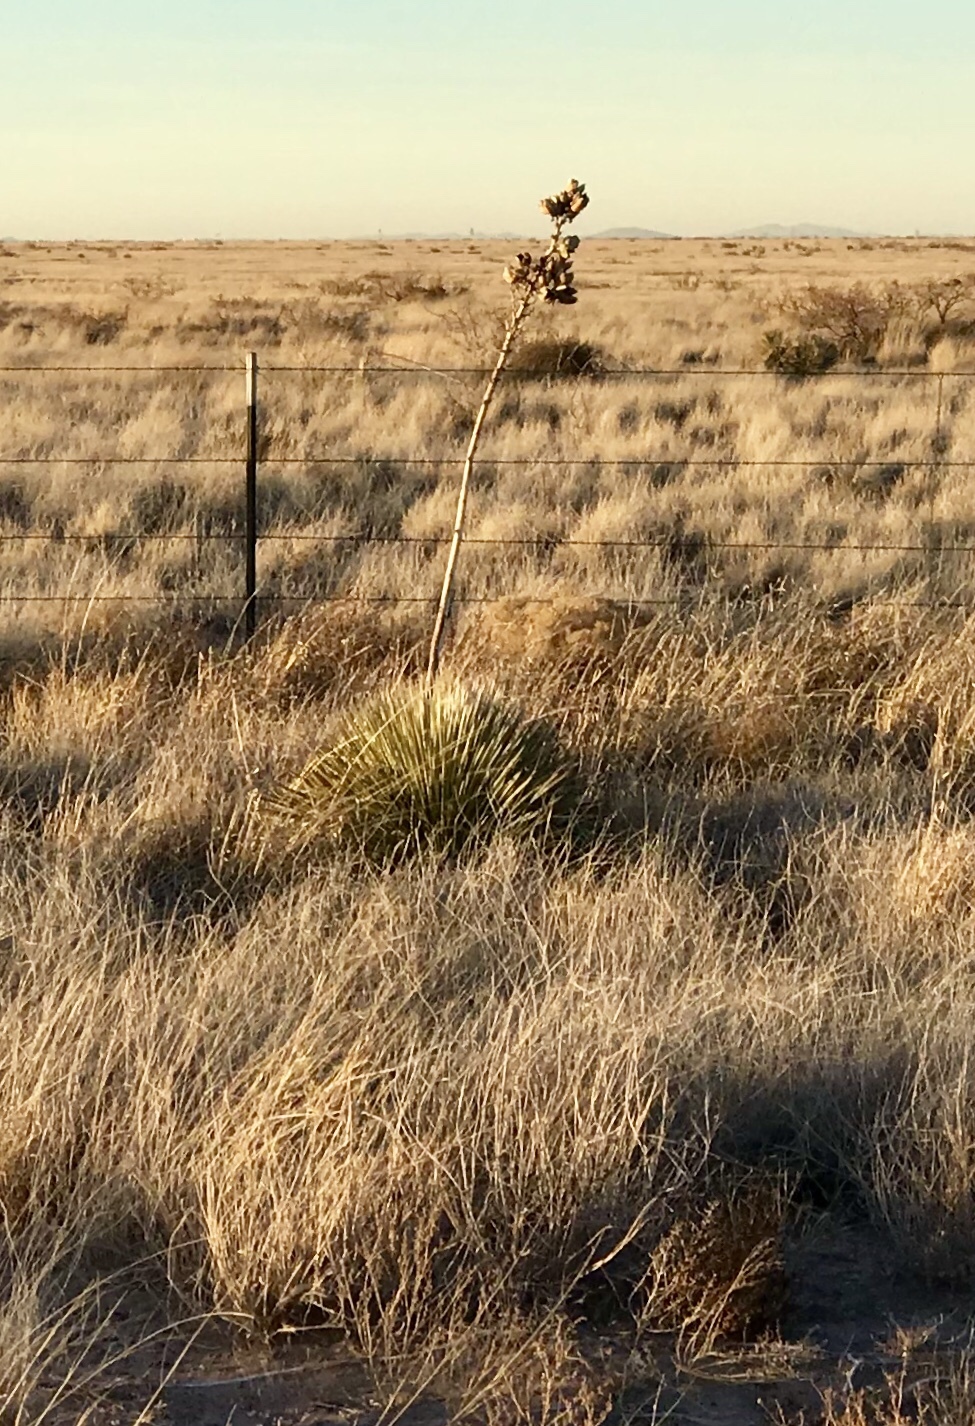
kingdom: Plantae
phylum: Tracheophyta
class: Liliopsida
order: Asparagales
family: Asparagaceae
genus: Yucca
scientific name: Yucca elata
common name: Palmella
